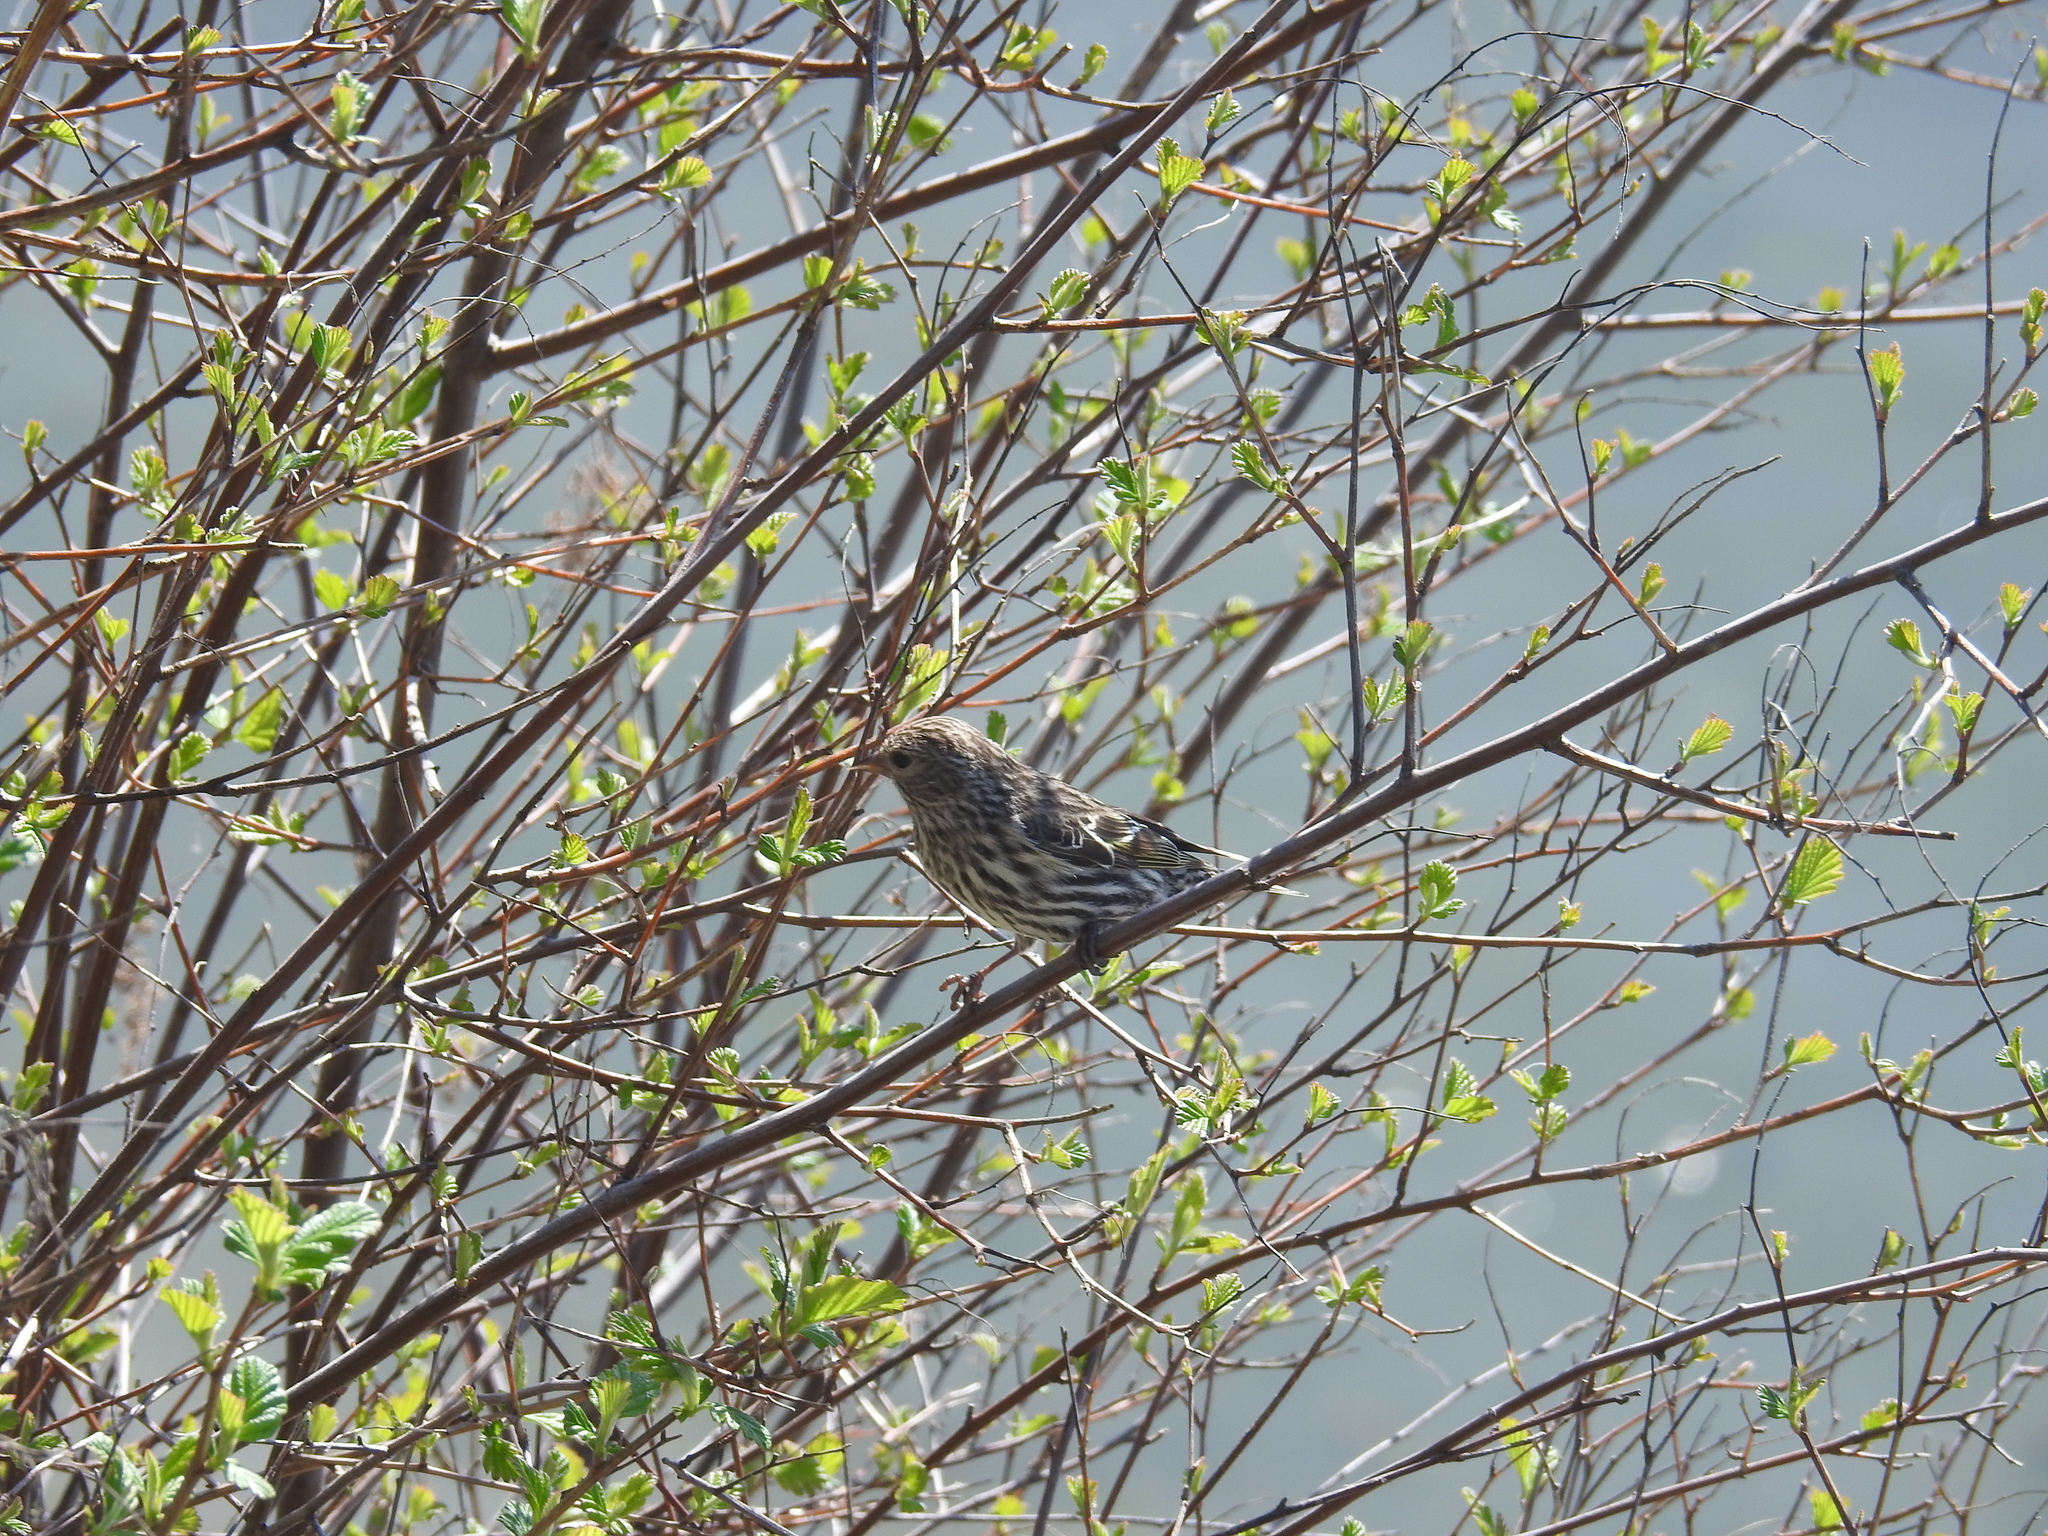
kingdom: Animalia
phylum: Chordata
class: Aves
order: Passeriformes
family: Fringillidae
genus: Spinus
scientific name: Spinus pinus
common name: Pine siskin
